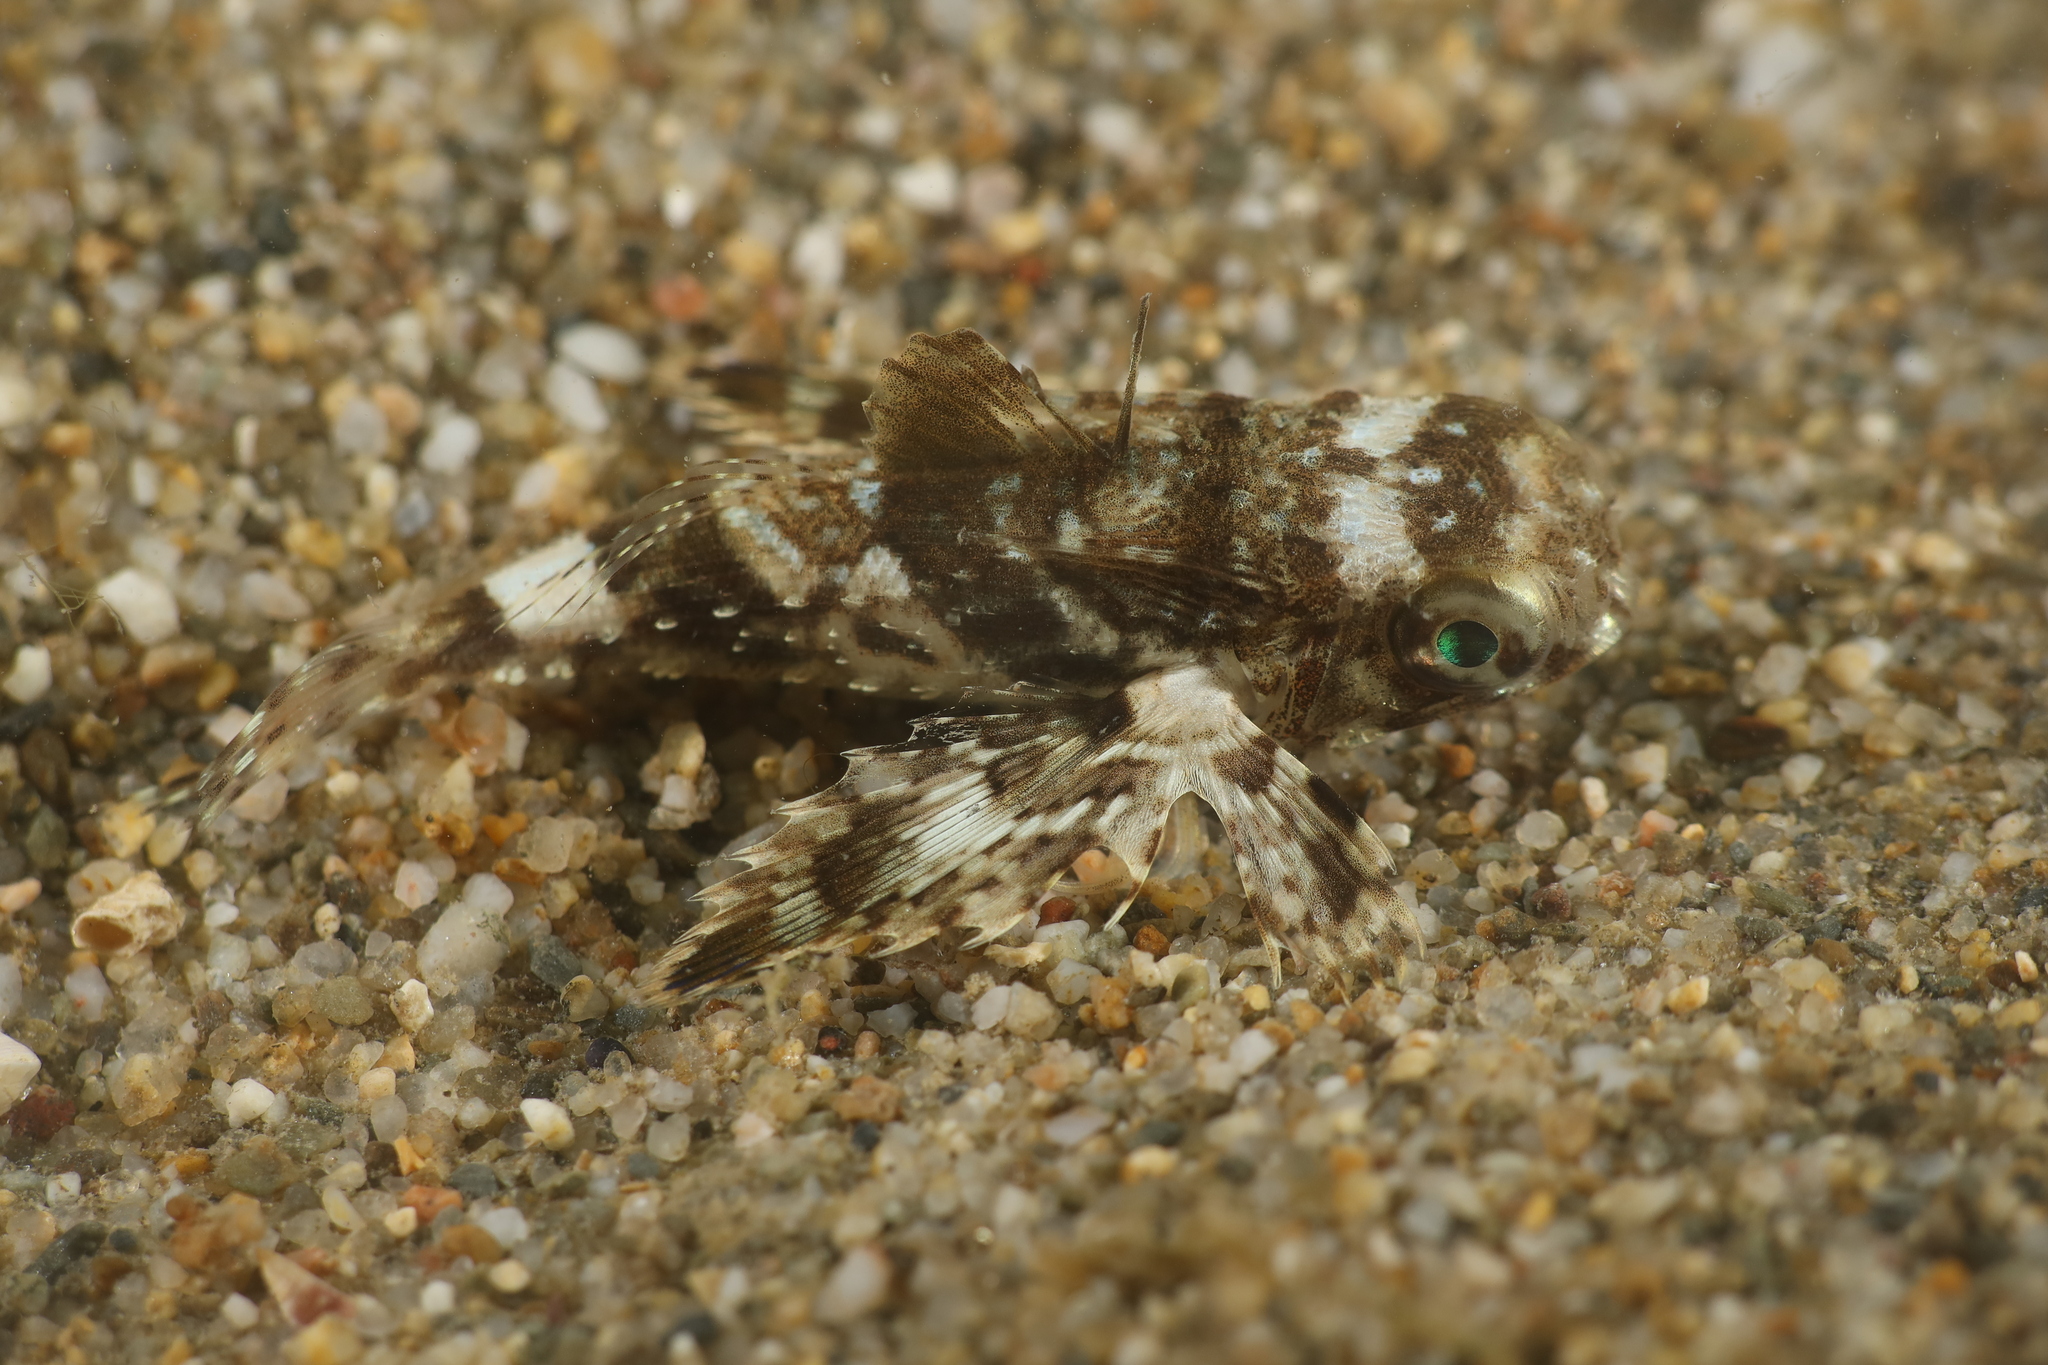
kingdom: Animalia
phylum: Chordata
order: Scorpaeniformes
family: Dactylopteridae
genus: Dactylopterus
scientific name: Dactylopterus volitans
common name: Flying gurnard
